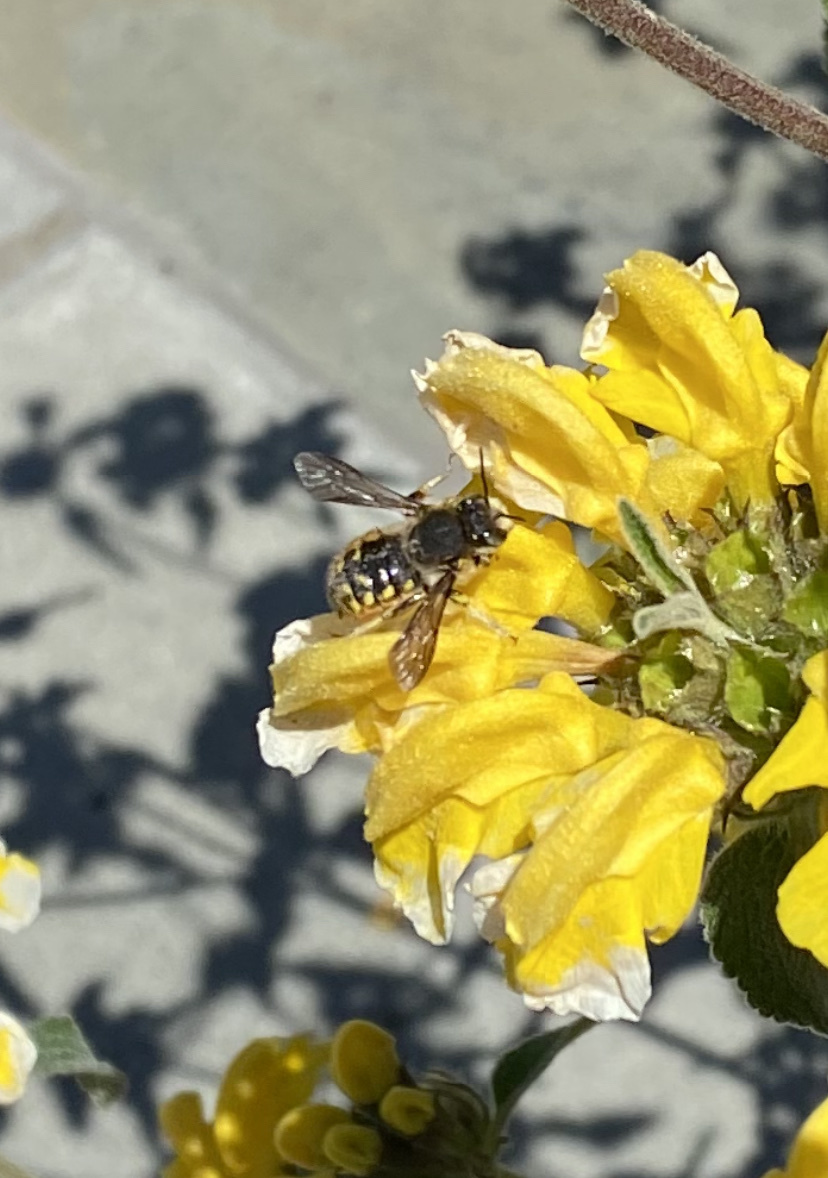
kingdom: Animalia
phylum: Arthropoda
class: Insecta
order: Hymenoptera
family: Megachilidae
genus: Anthidium
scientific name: Anthidium manicatum
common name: Wool carder bee
